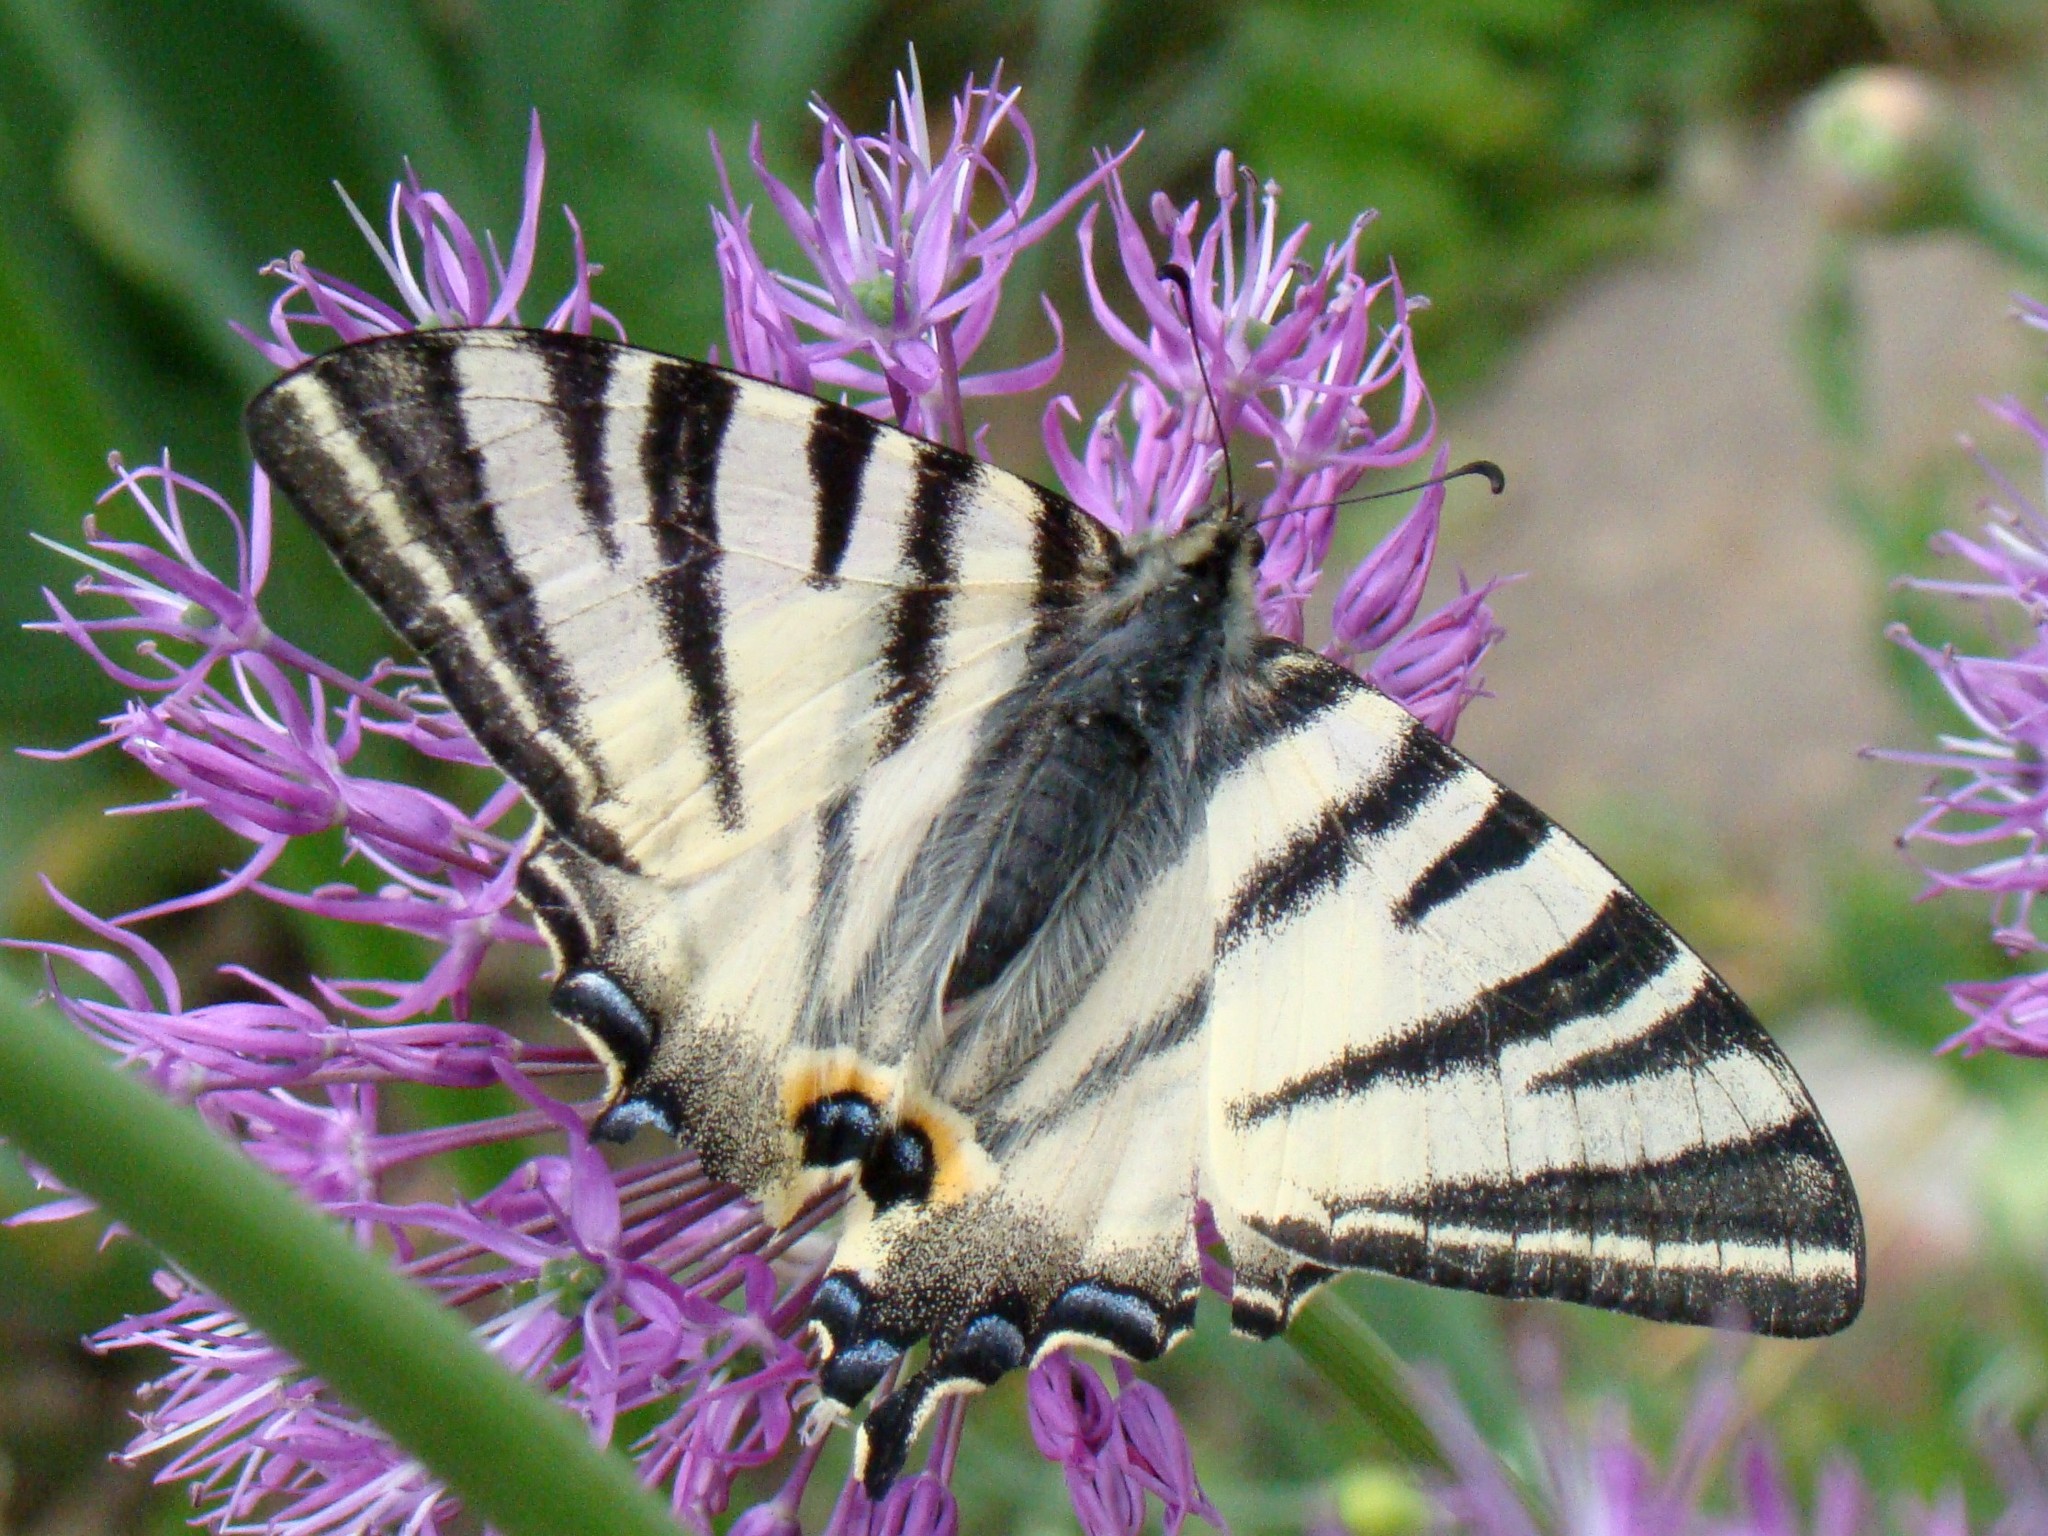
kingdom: Animalia
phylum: Arthropoda
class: Insecta
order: Lepidoptera
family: Papilionidae
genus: Iphiclides
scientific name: Iphiclides podalirius
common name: Scarce swallowtail
